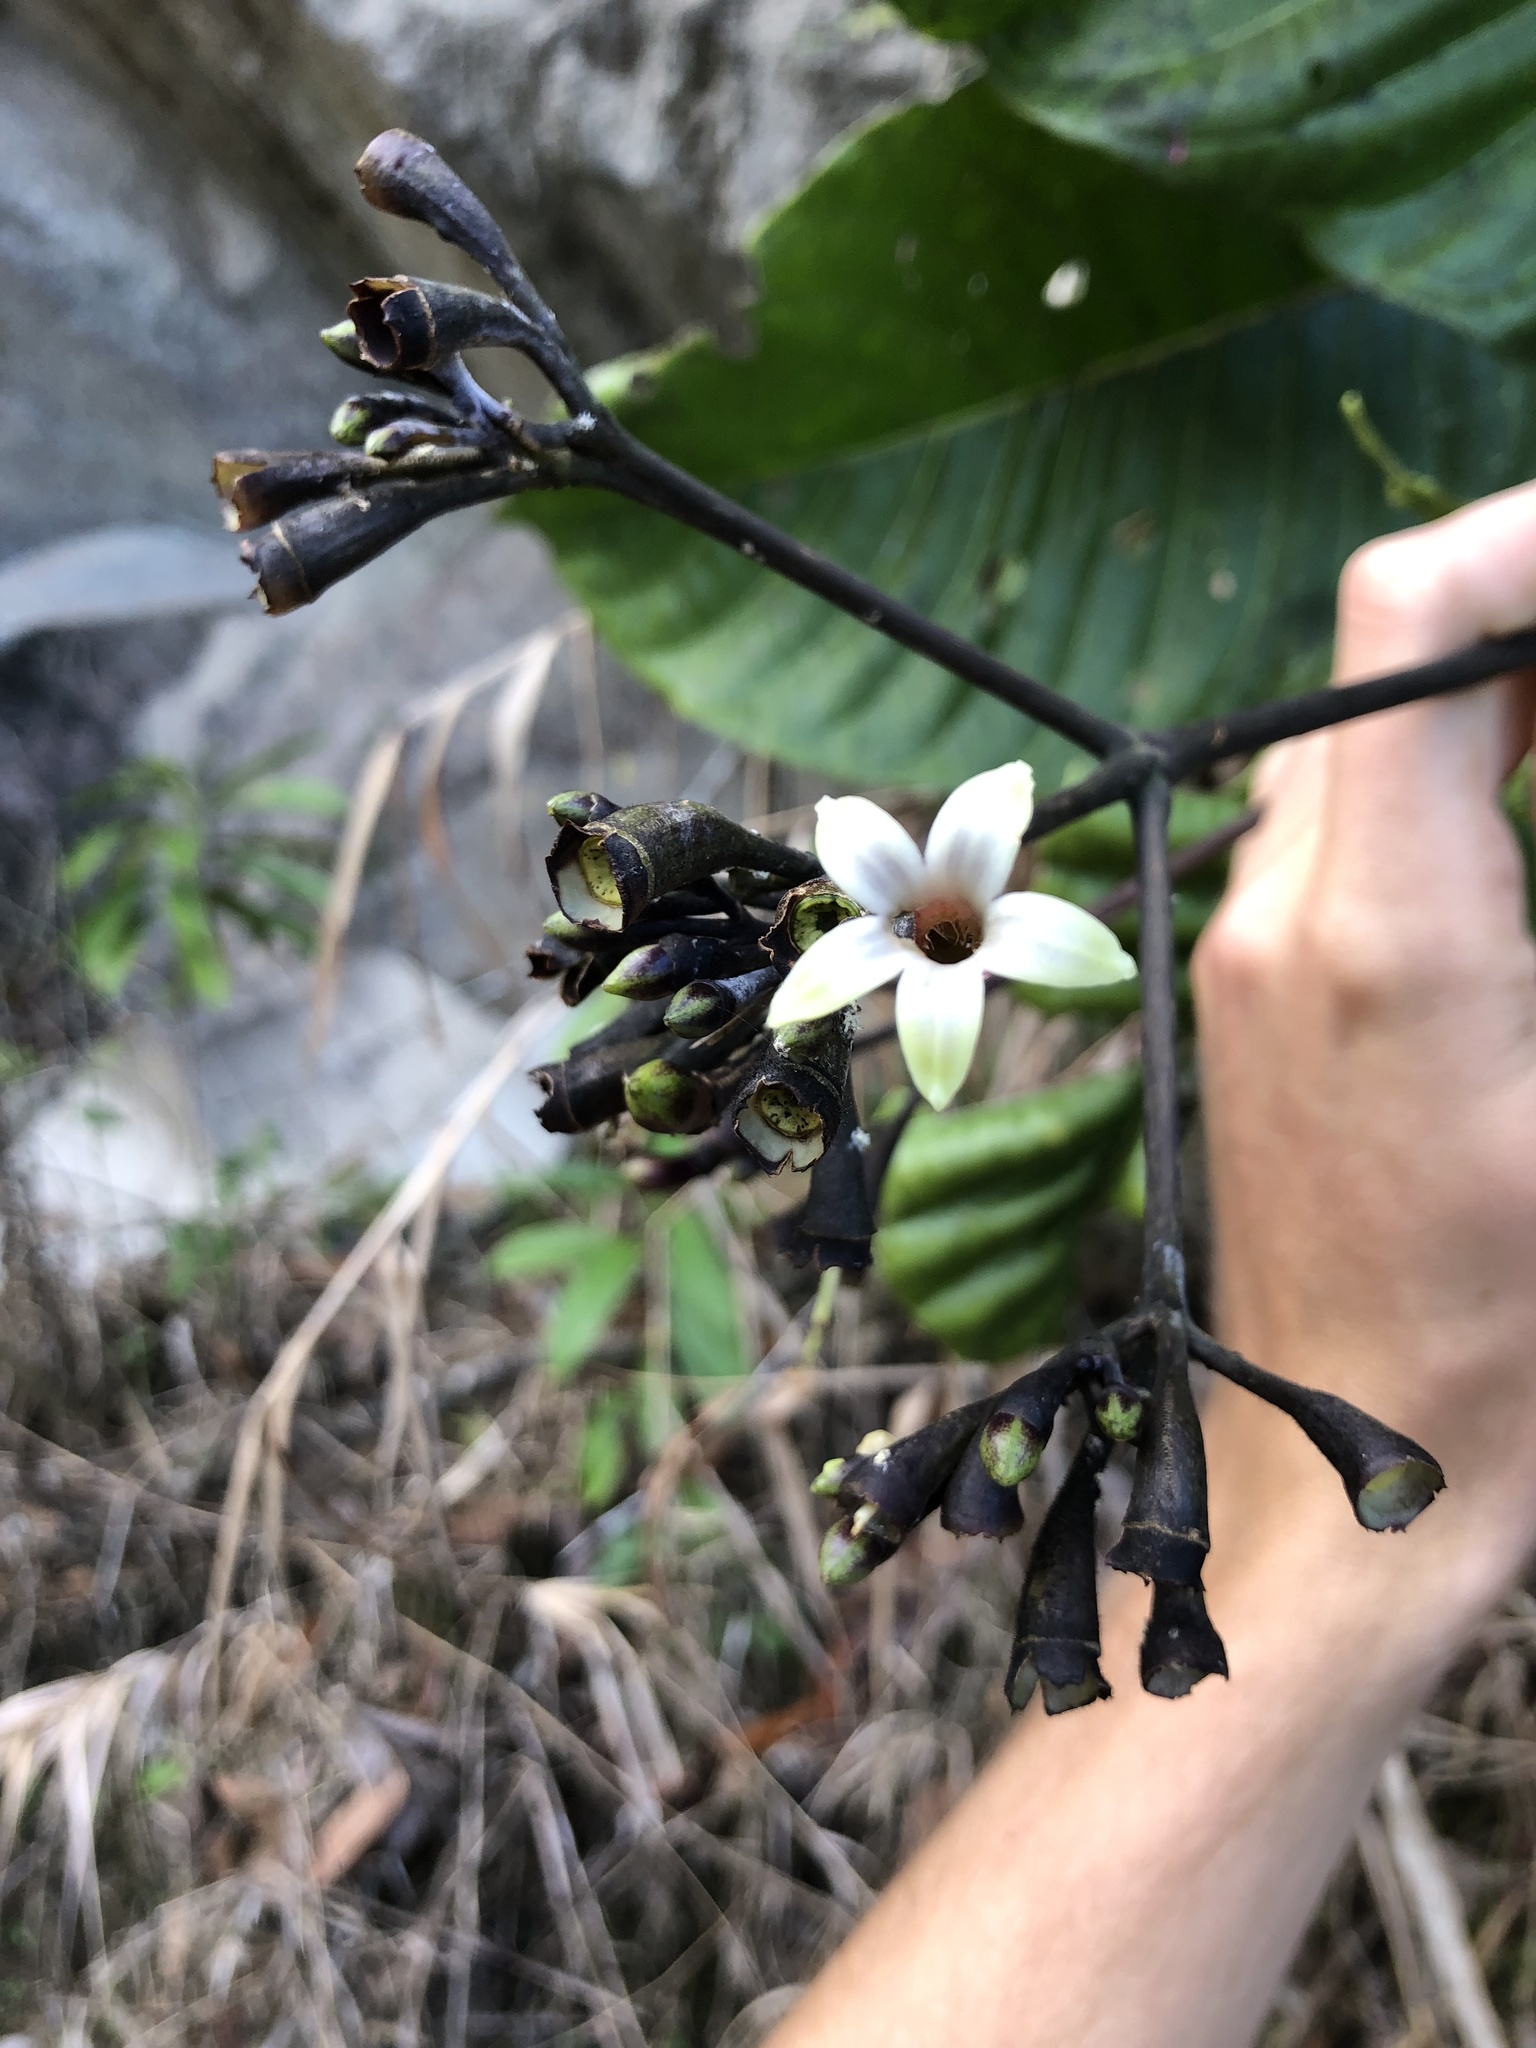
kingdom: Plantae
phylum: Tracheophyta
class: Magnoliopsida
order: Gentianales
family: Rubiaceae
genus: Condaminea
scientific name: Condaminea corymbosa
